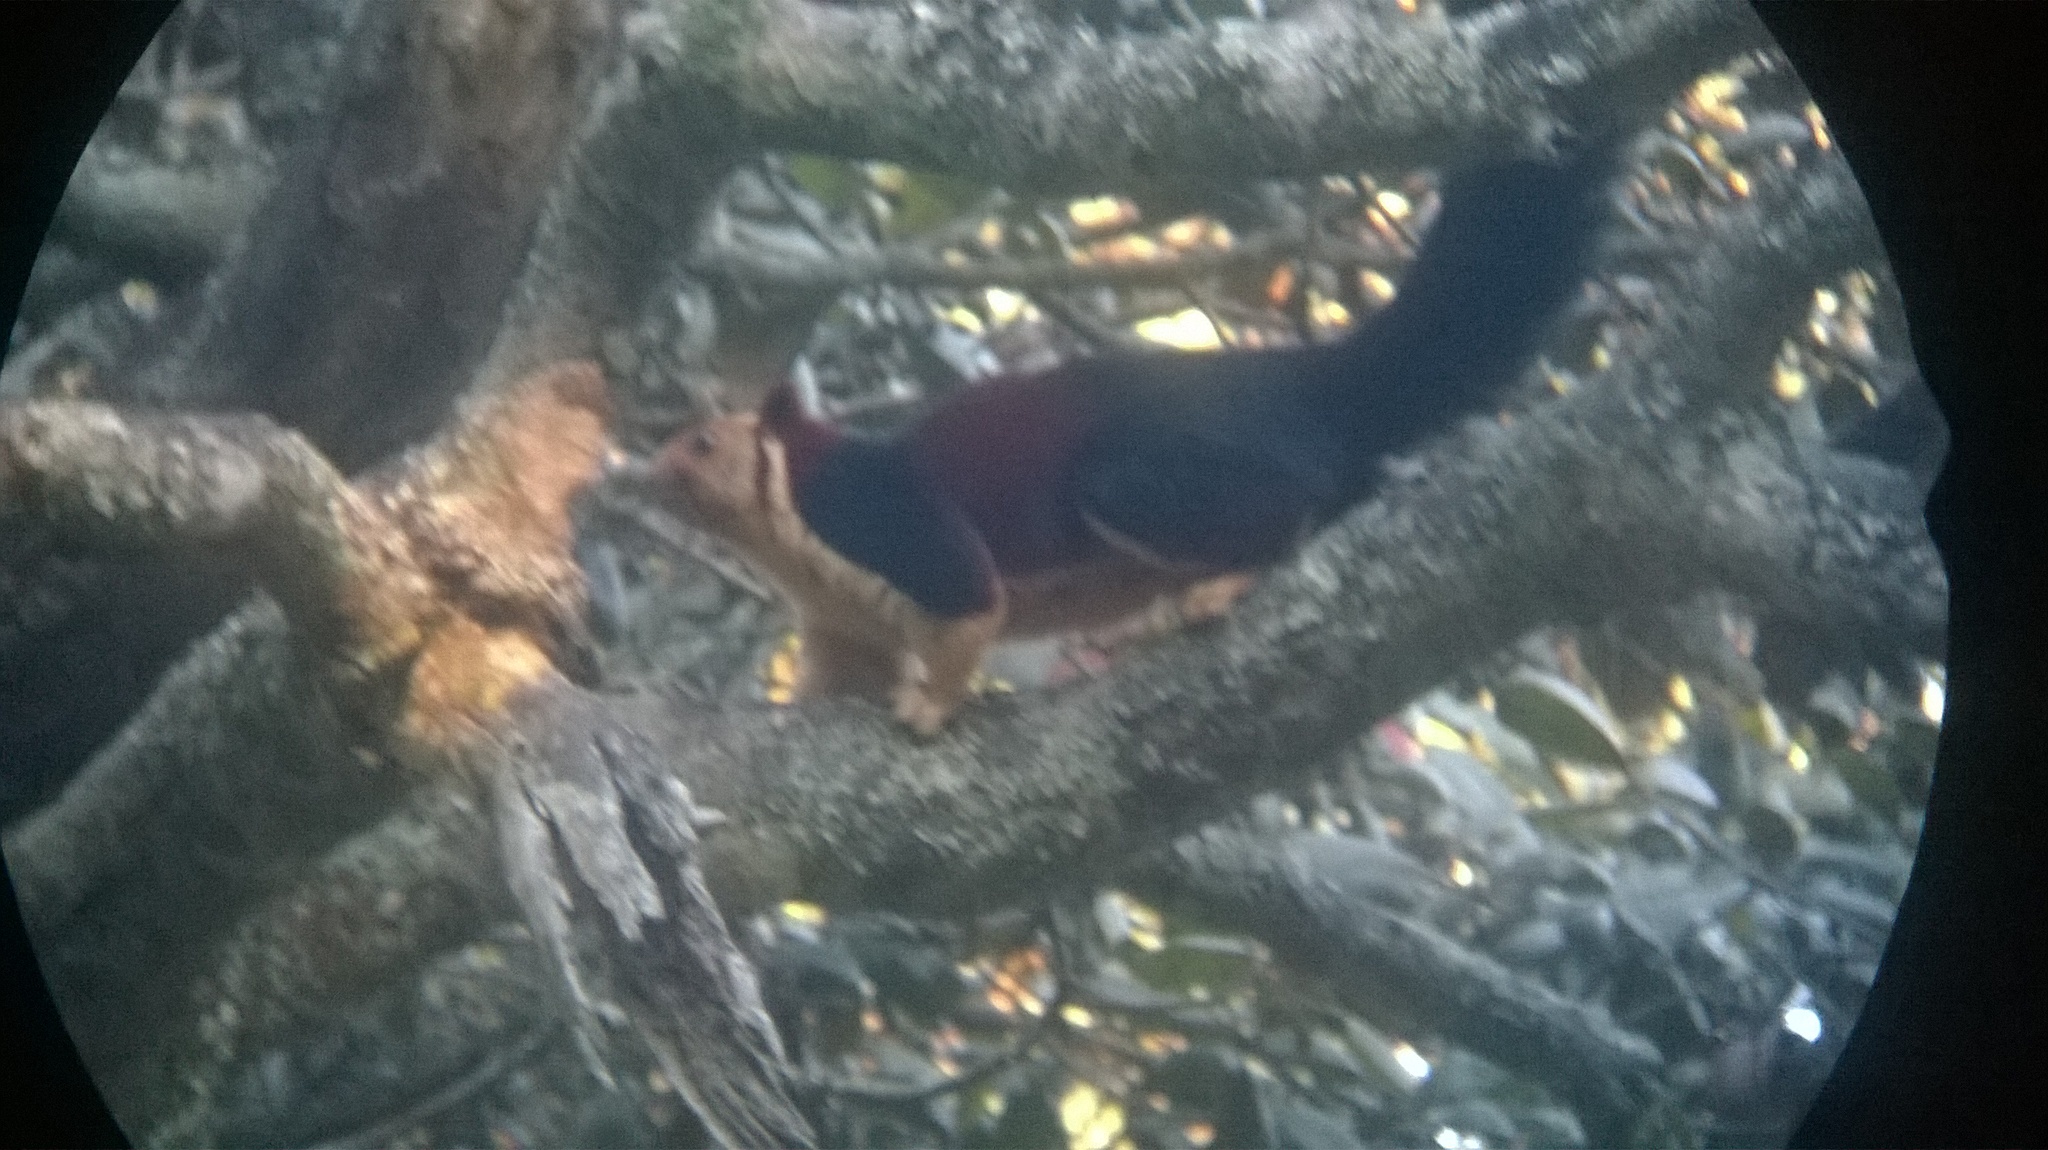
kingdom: Animalia
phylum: Chordata
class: Mammalia
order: Rodentia
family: Sciuridae
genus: Ratufa
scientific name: Ratufa indica
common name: Indian giant squirrel
